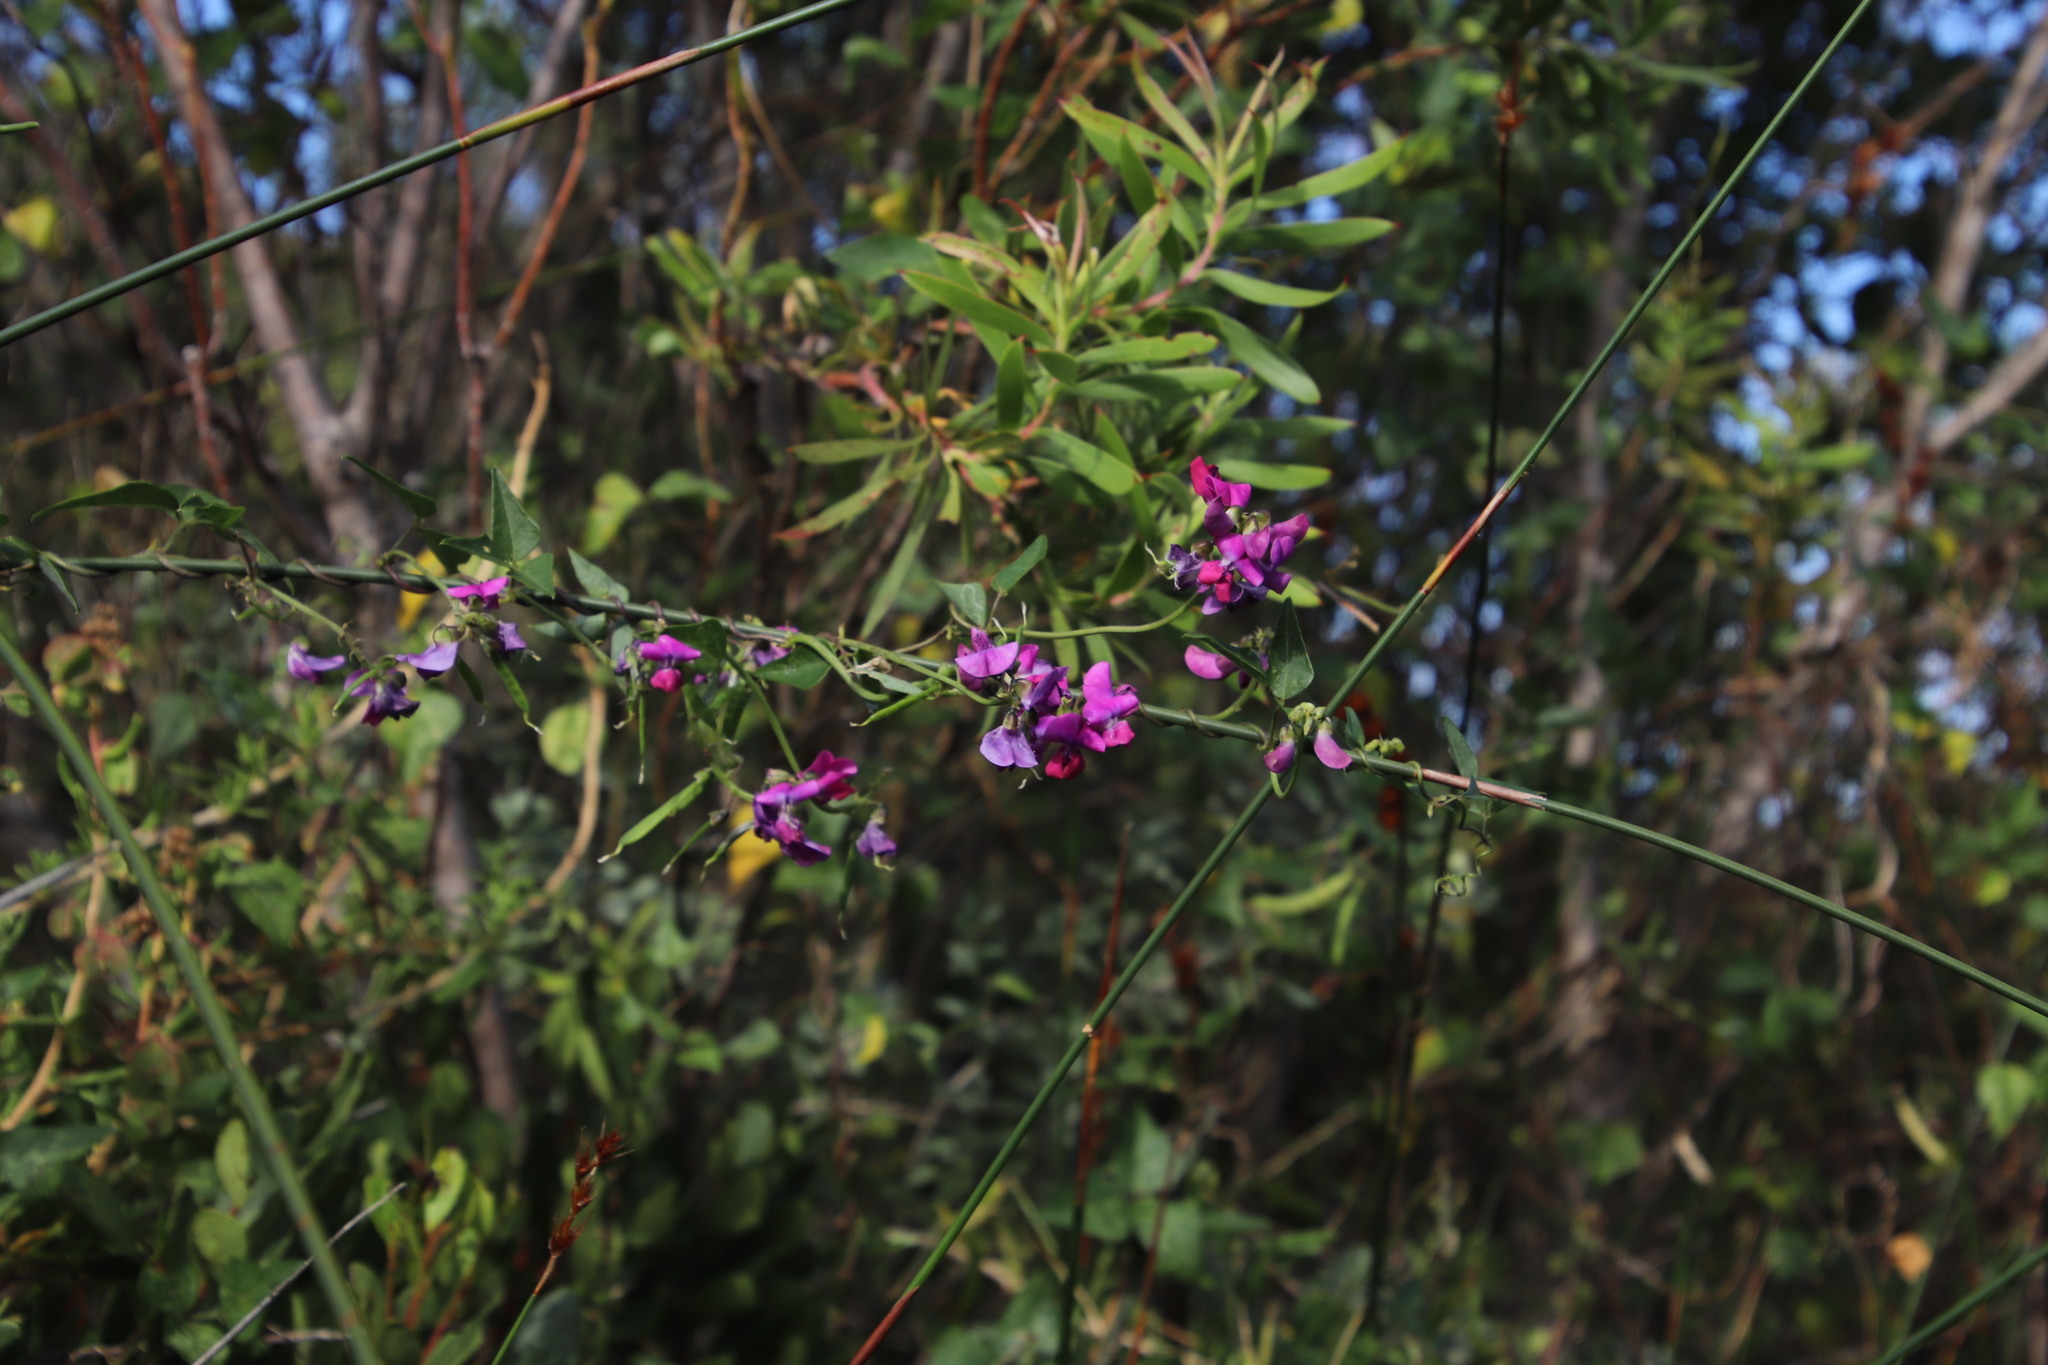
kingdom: Plantae
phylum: Tracheophyta
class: Magnoliopsida
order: Fabales
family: Fabaceae
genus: Dipogon
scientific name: Dipogon lignosus
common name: Okie bean
